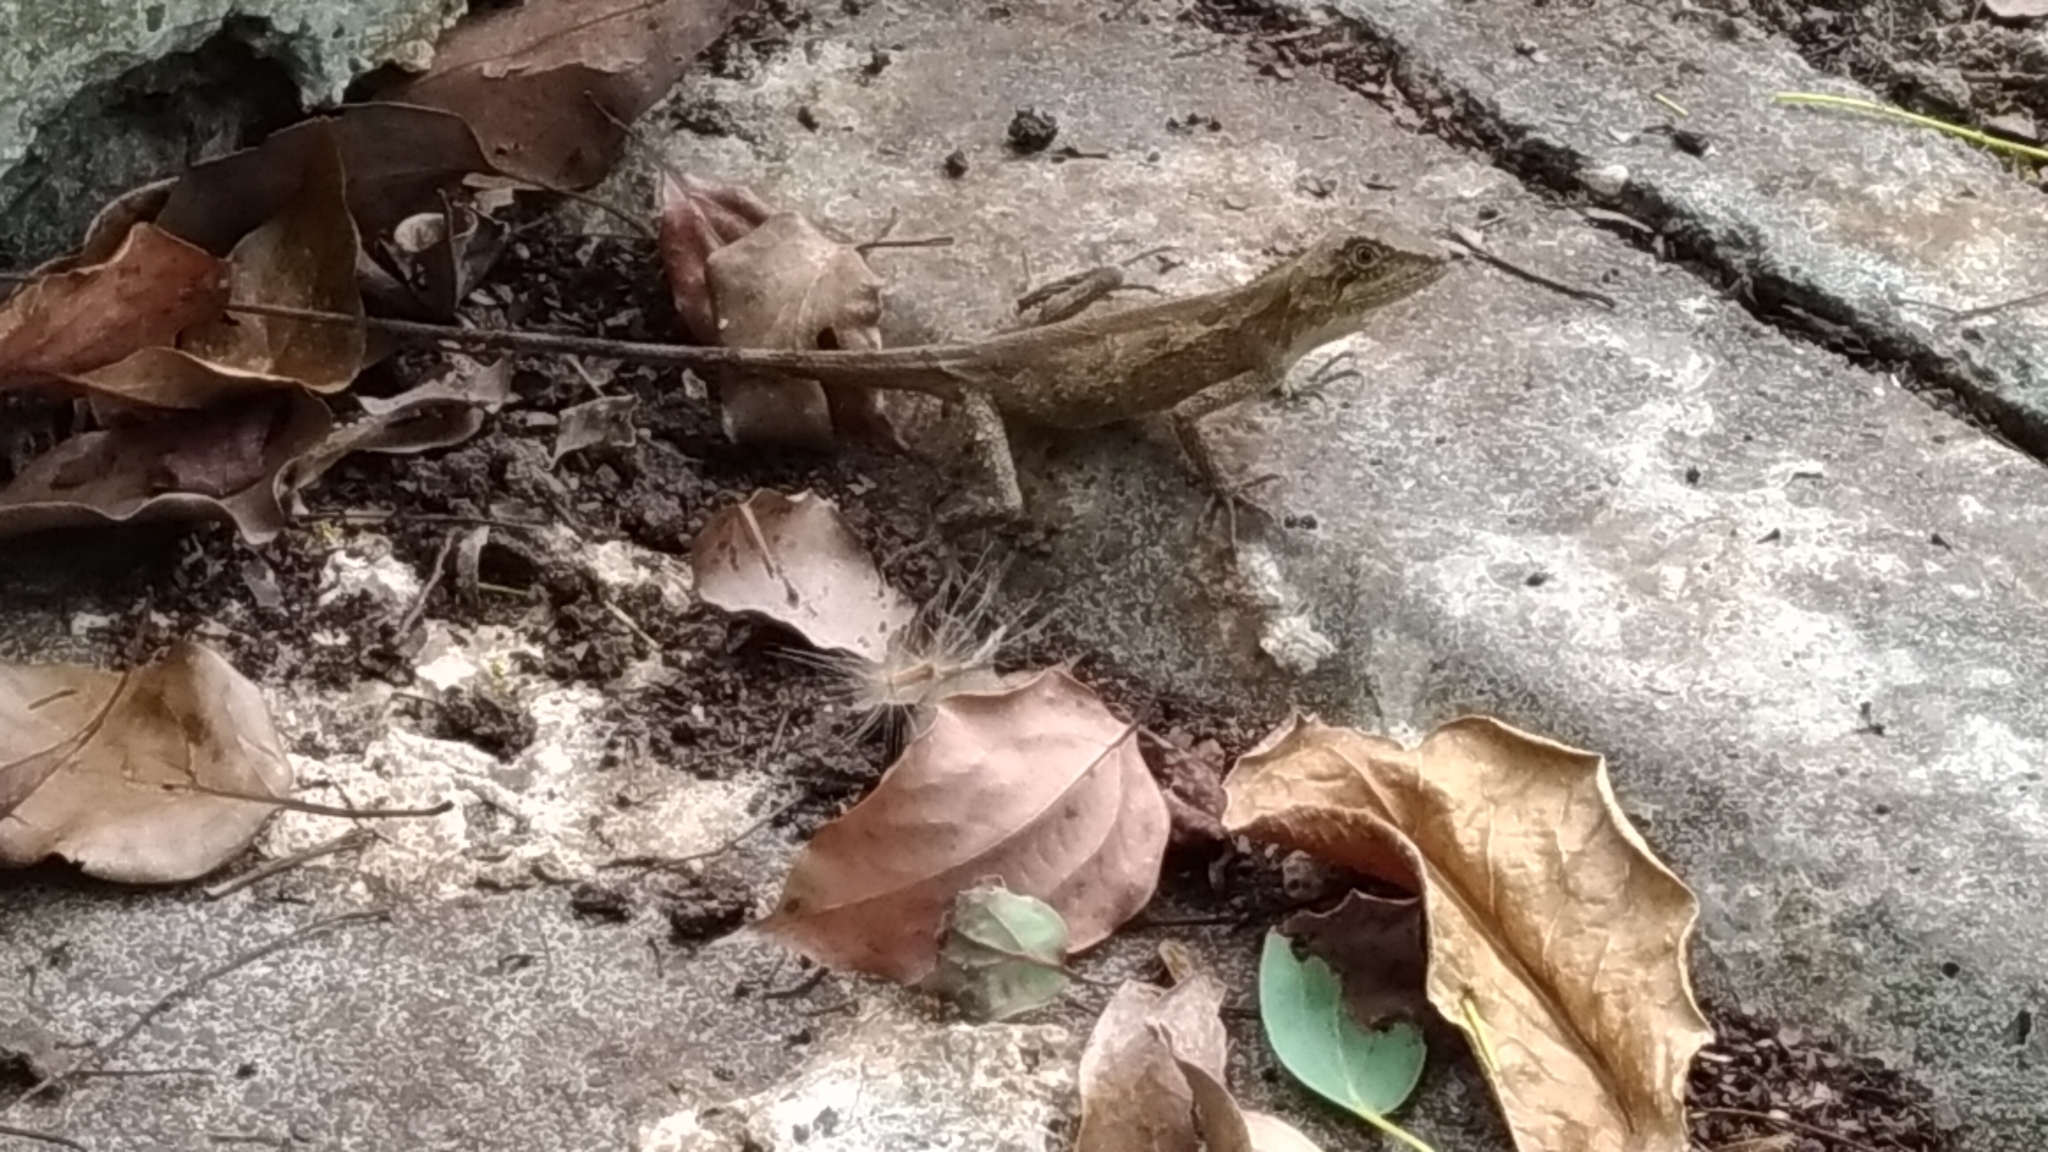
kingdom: Animalia
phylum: Chordata
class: Squamata
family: Agamidae
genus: Diploderma
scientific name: Diploderma swinhonis
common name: Taiwan japalure
